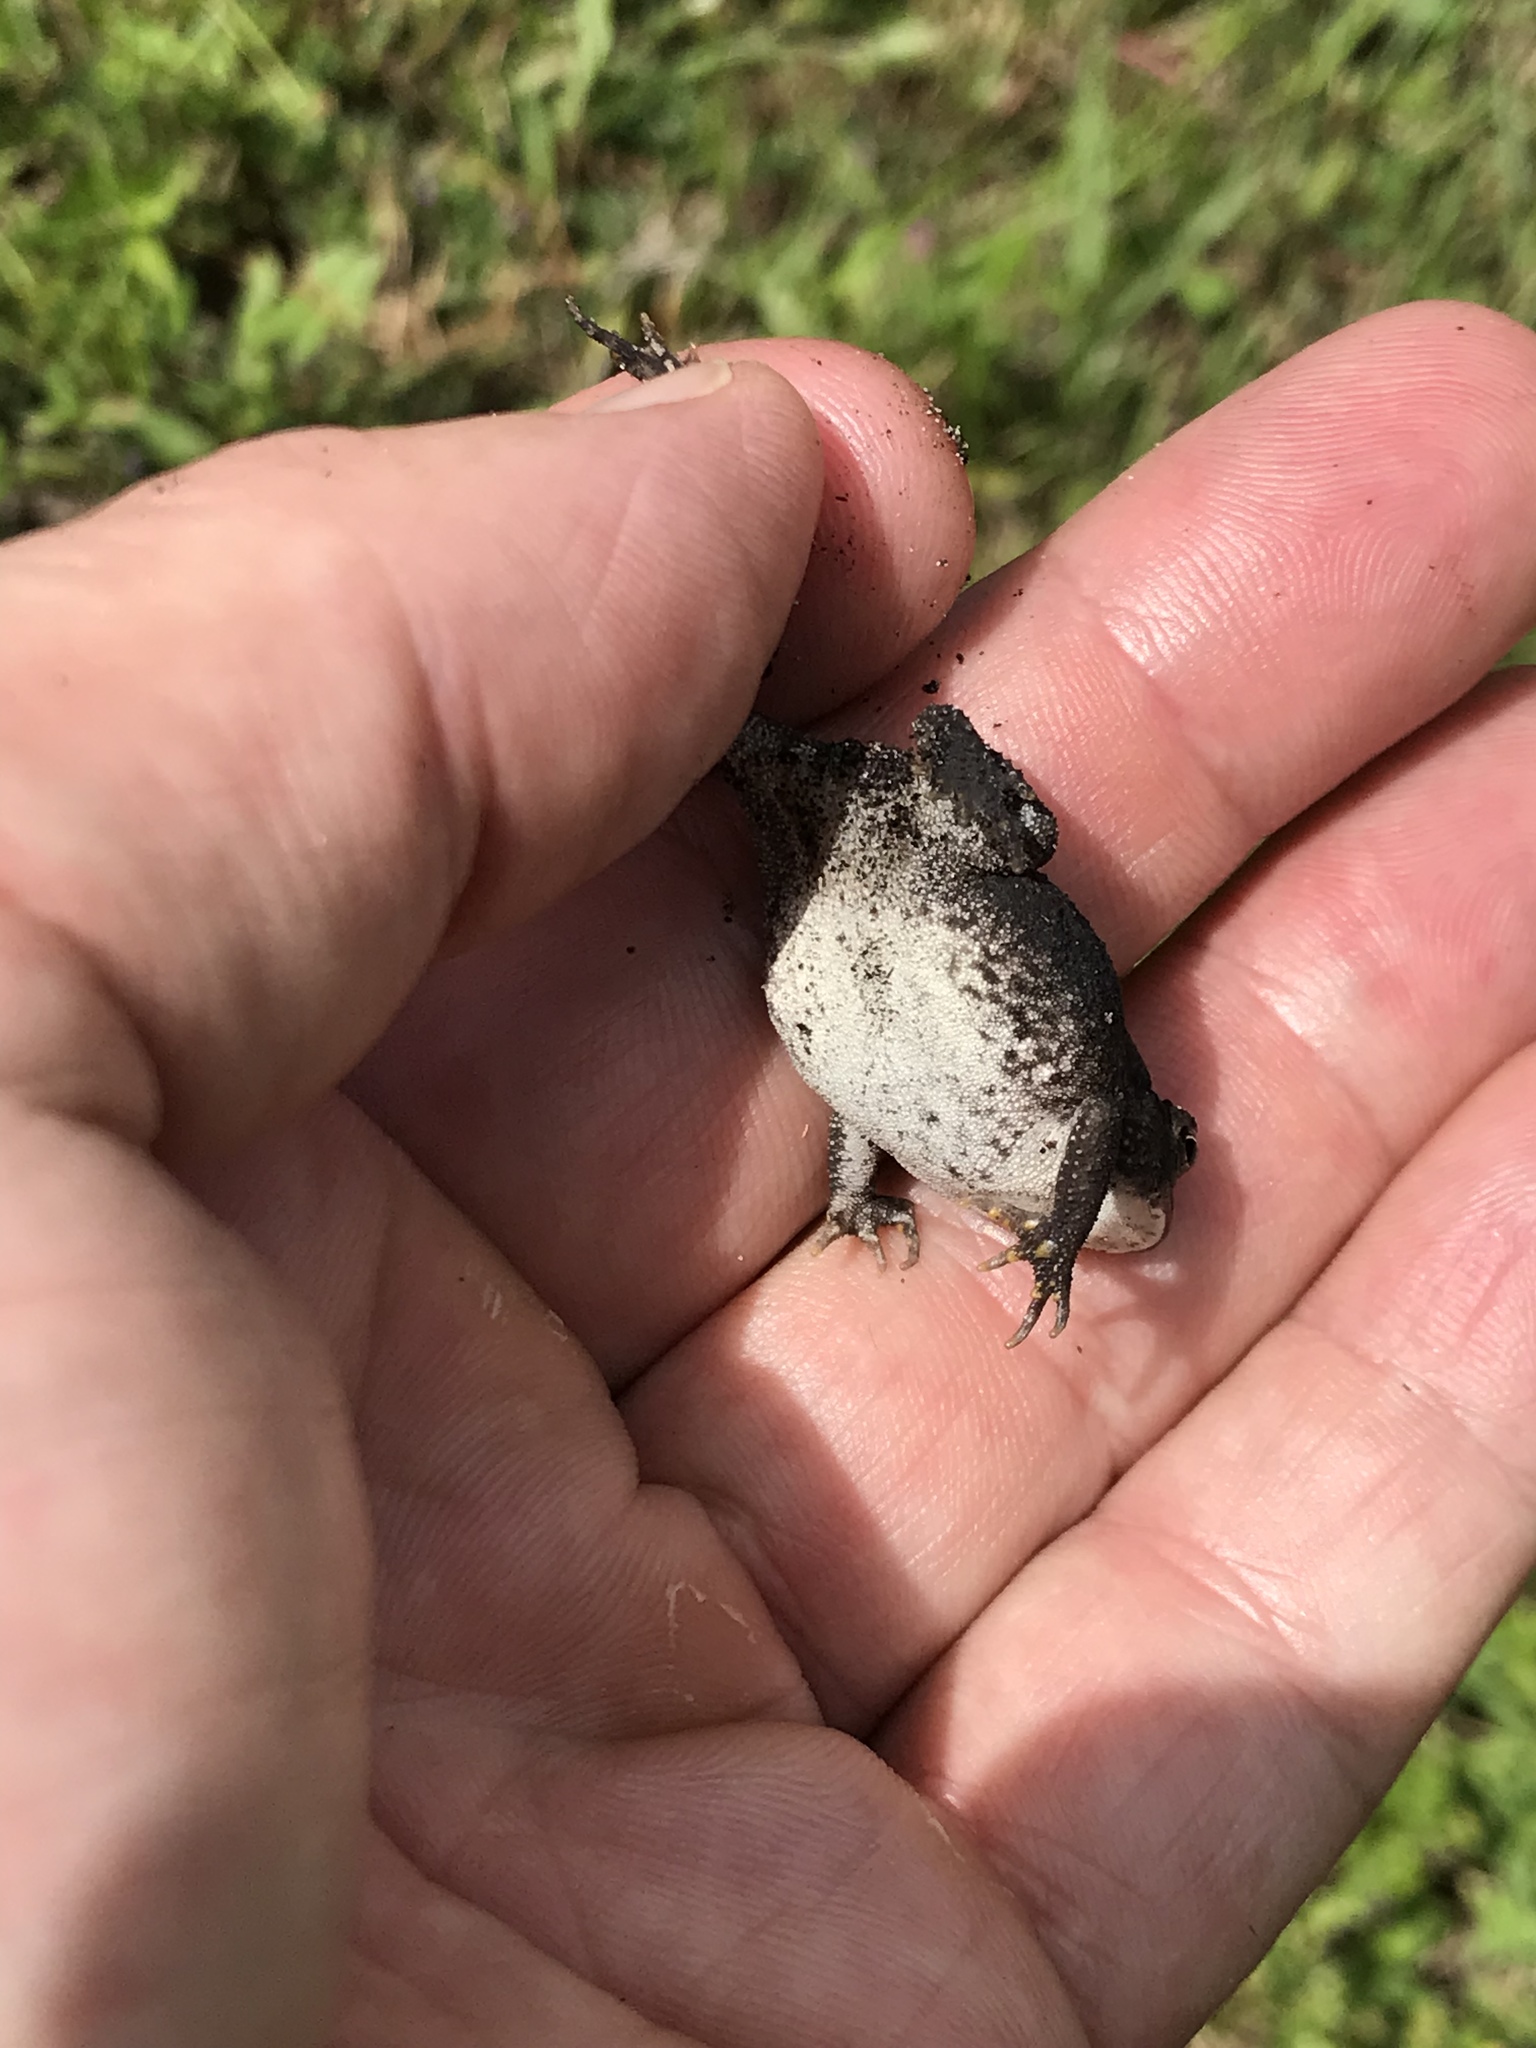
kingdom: Animalia
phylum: Chordata
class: Amphibia
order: Anura
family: Bufonidae
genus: Anaxyrus
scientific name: Anaxyrus terrestris
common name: Southern toad
